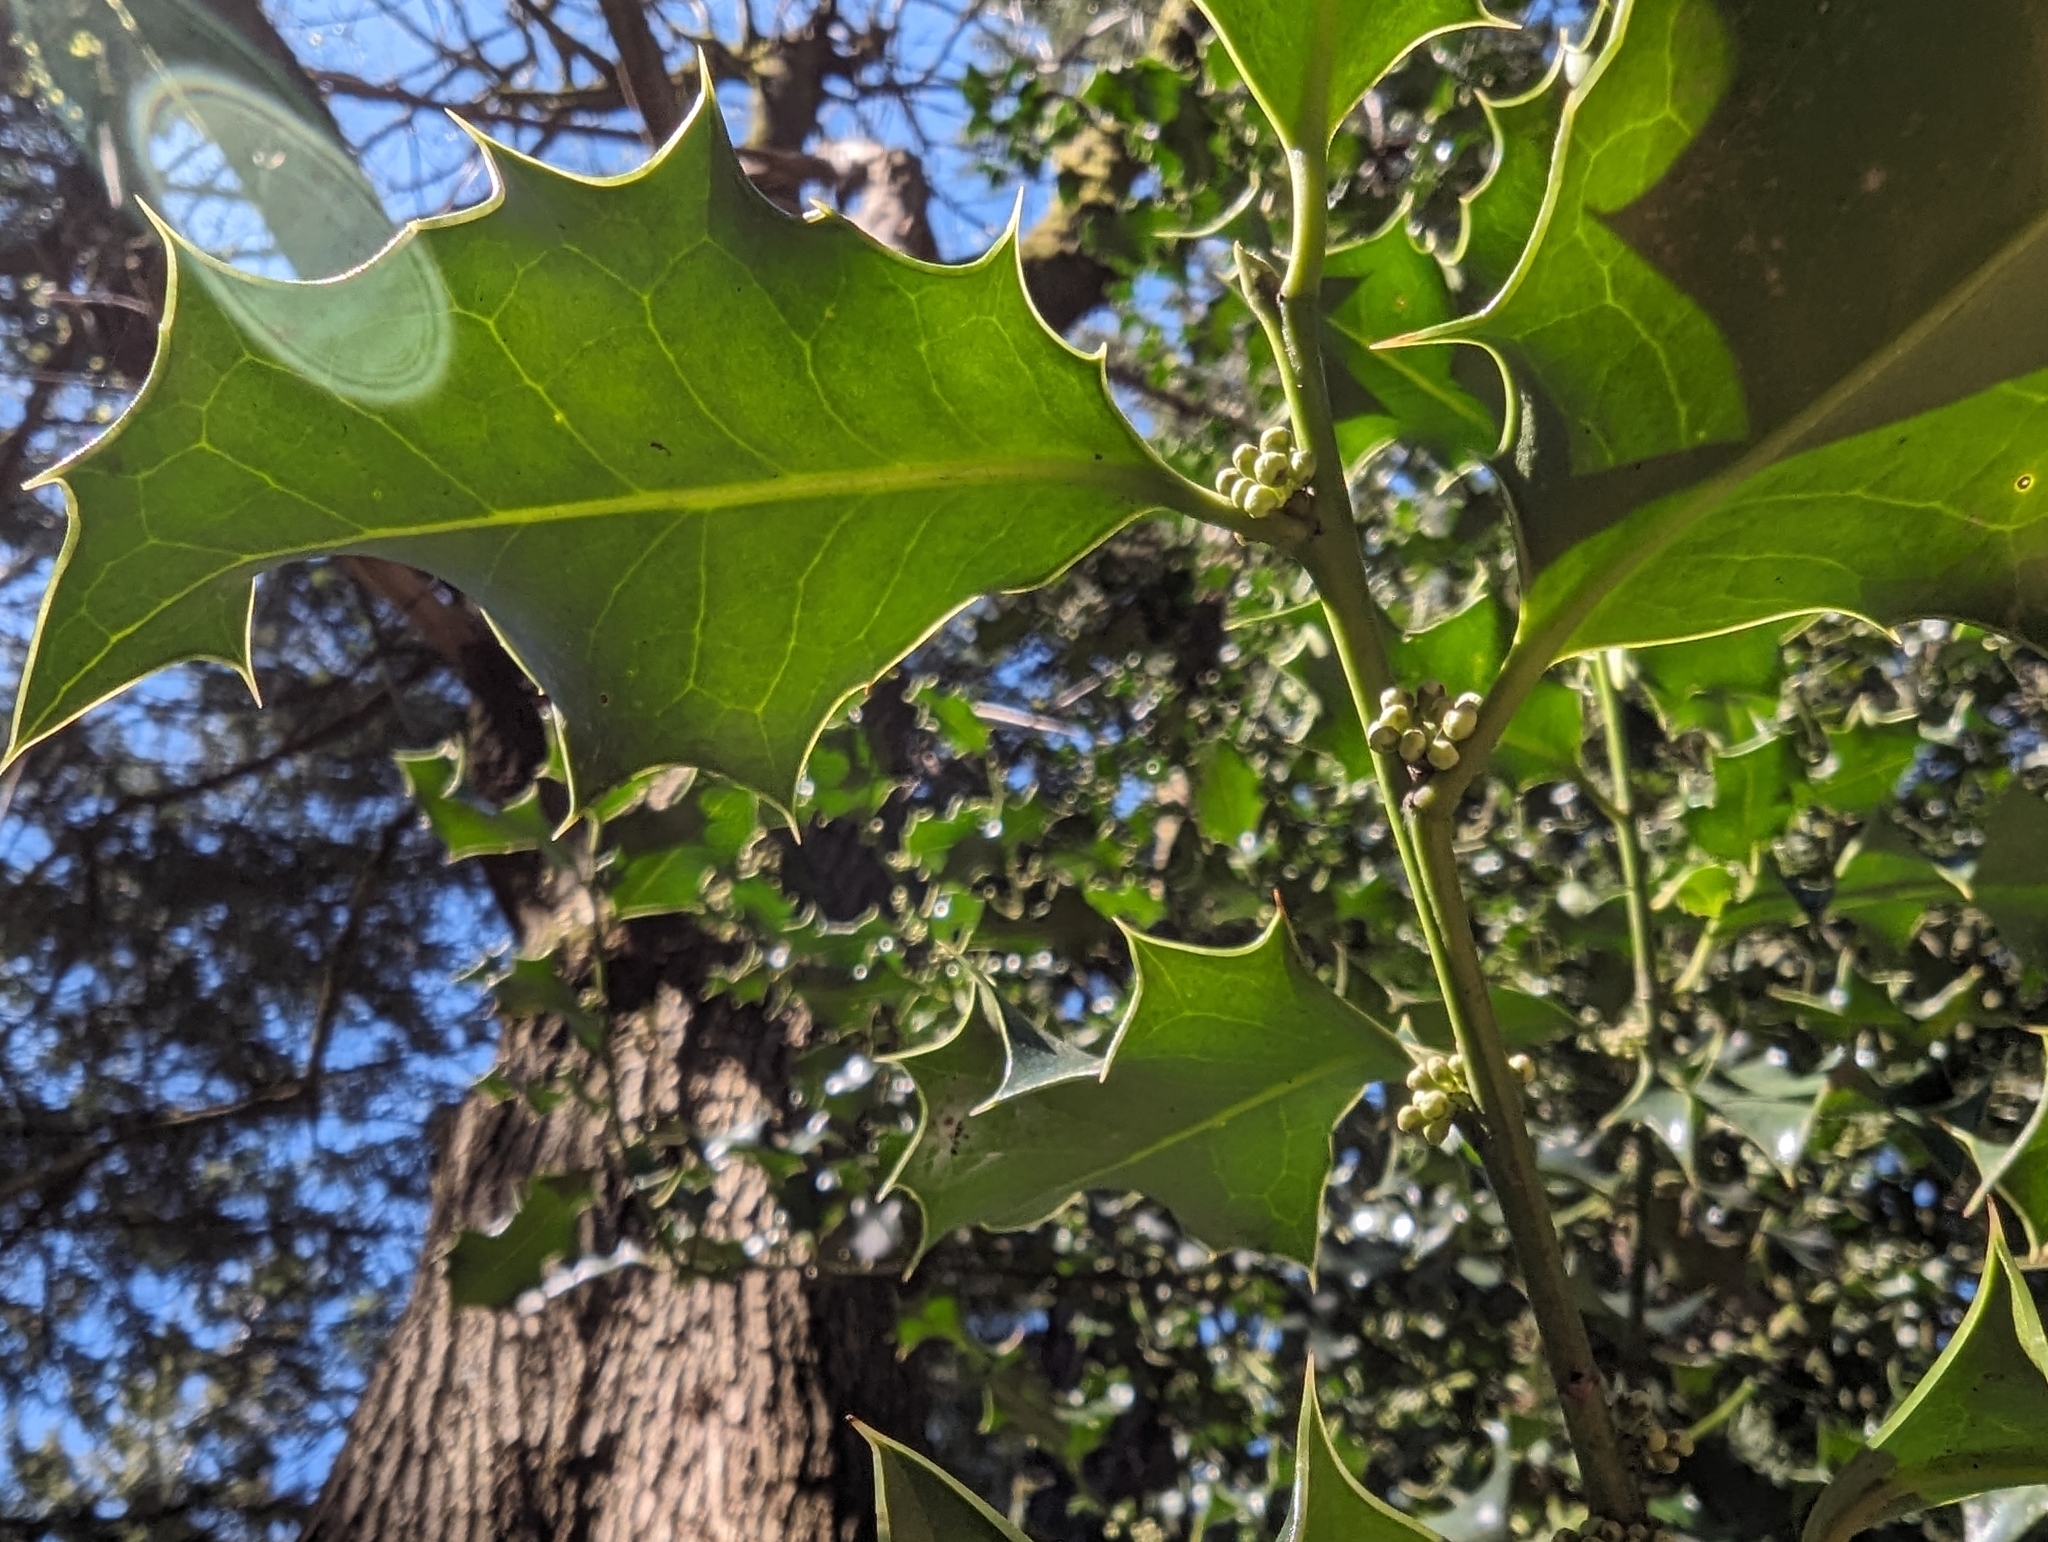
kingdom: Plantae
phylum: Tracheophyta
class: Magnoliopsida
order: Aquifoliales
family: Aquifoliaceae
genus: Ilex
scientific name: Ilex aquifolium
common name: English holly
